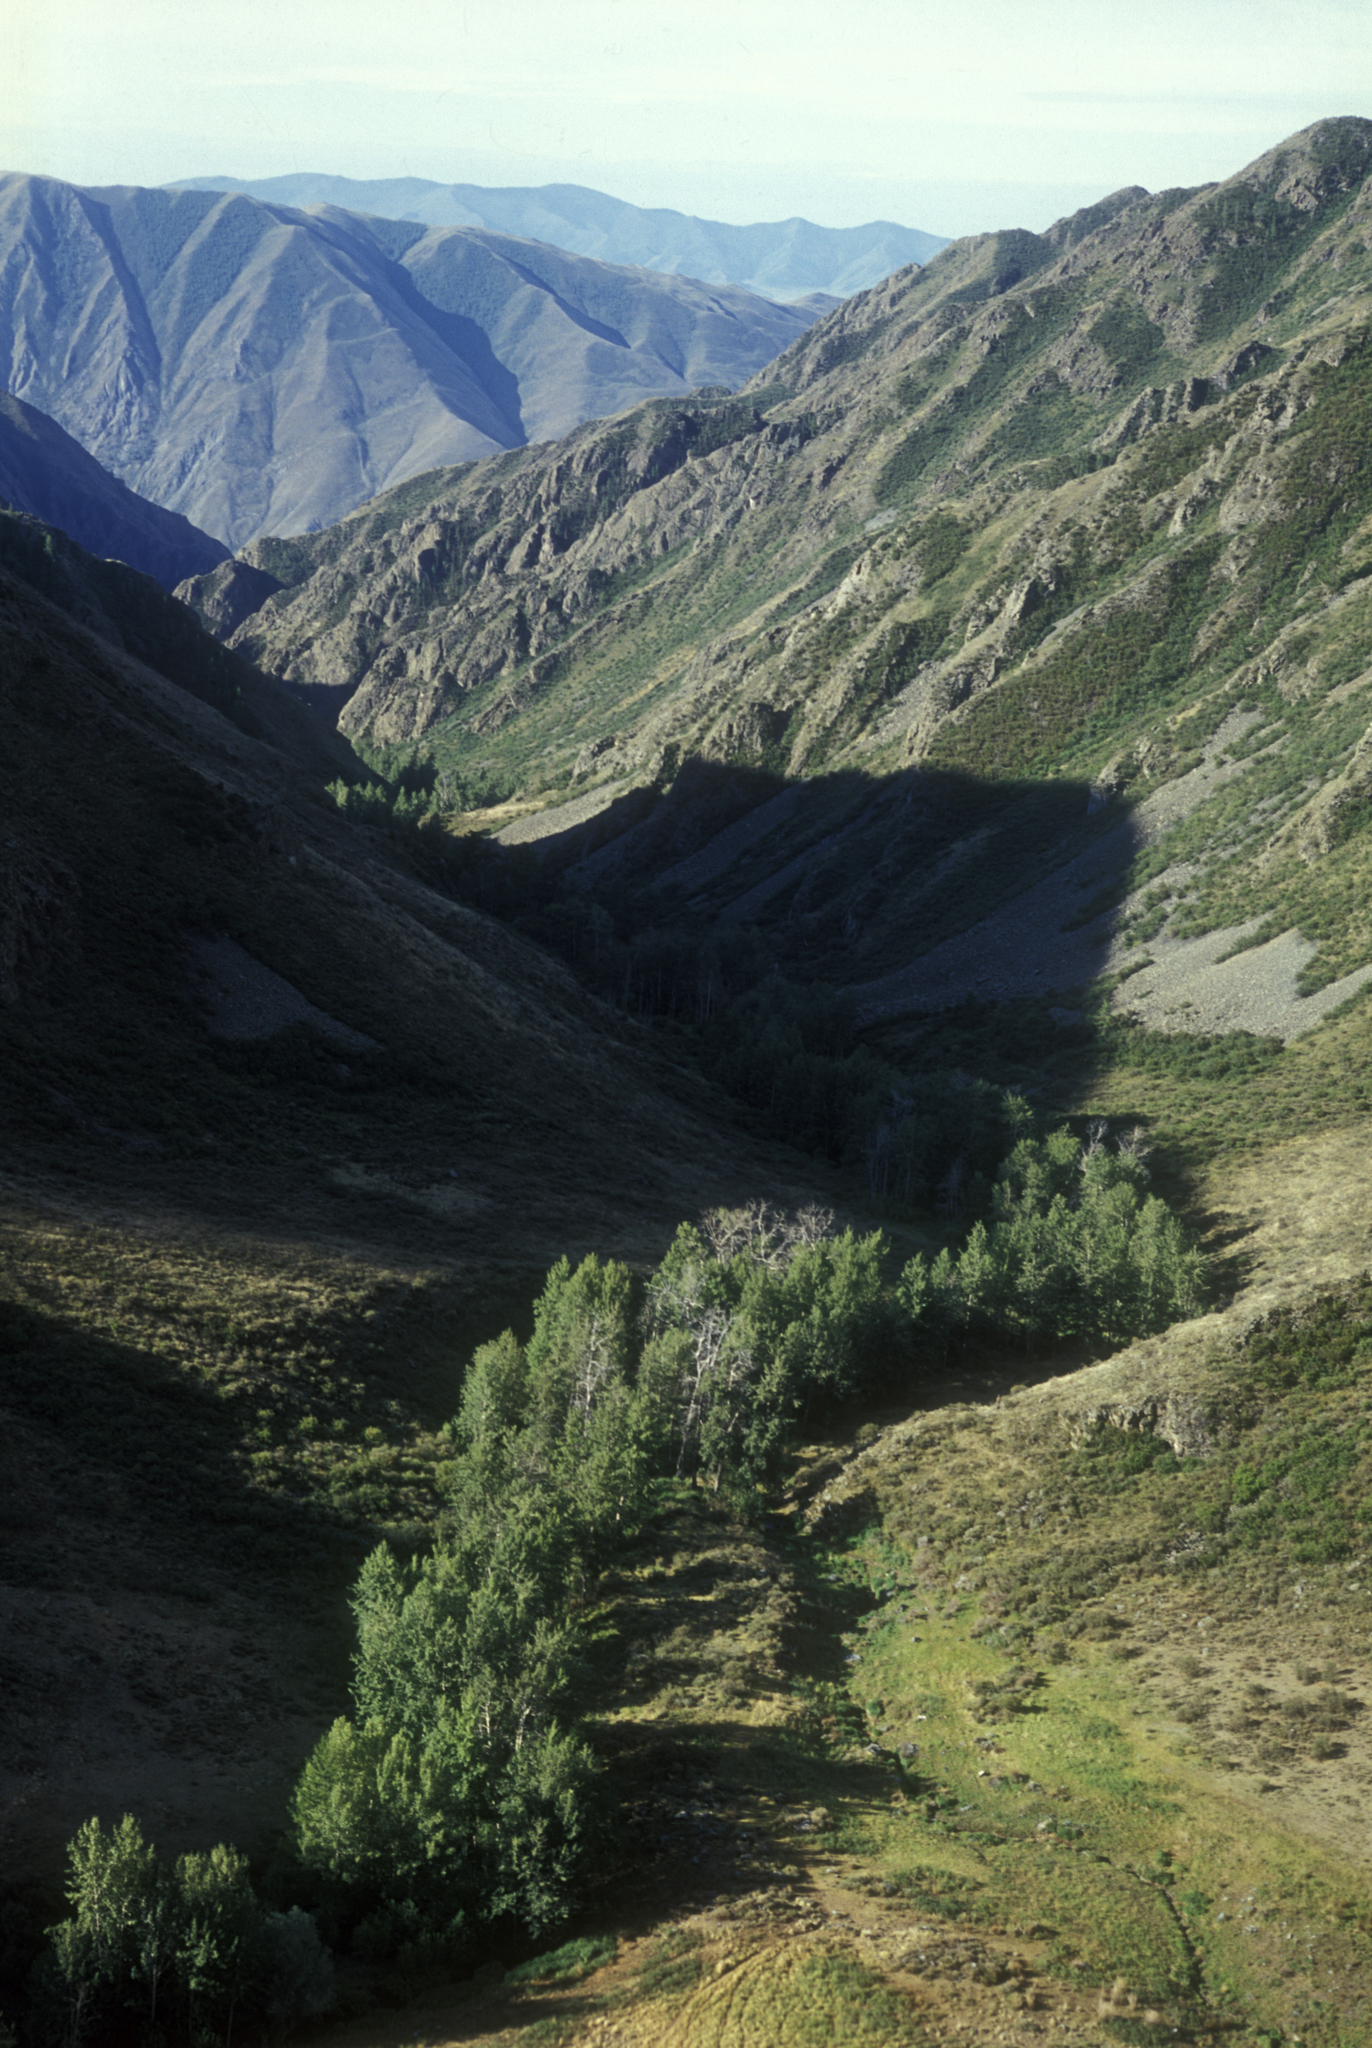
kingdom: Plantae
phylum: Tracheophyta
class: Magnoliopsida
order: Malpighiales
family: Salicaceae
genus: Populus
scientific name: Populus laurifolia
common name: Laurel-leaf poplar
